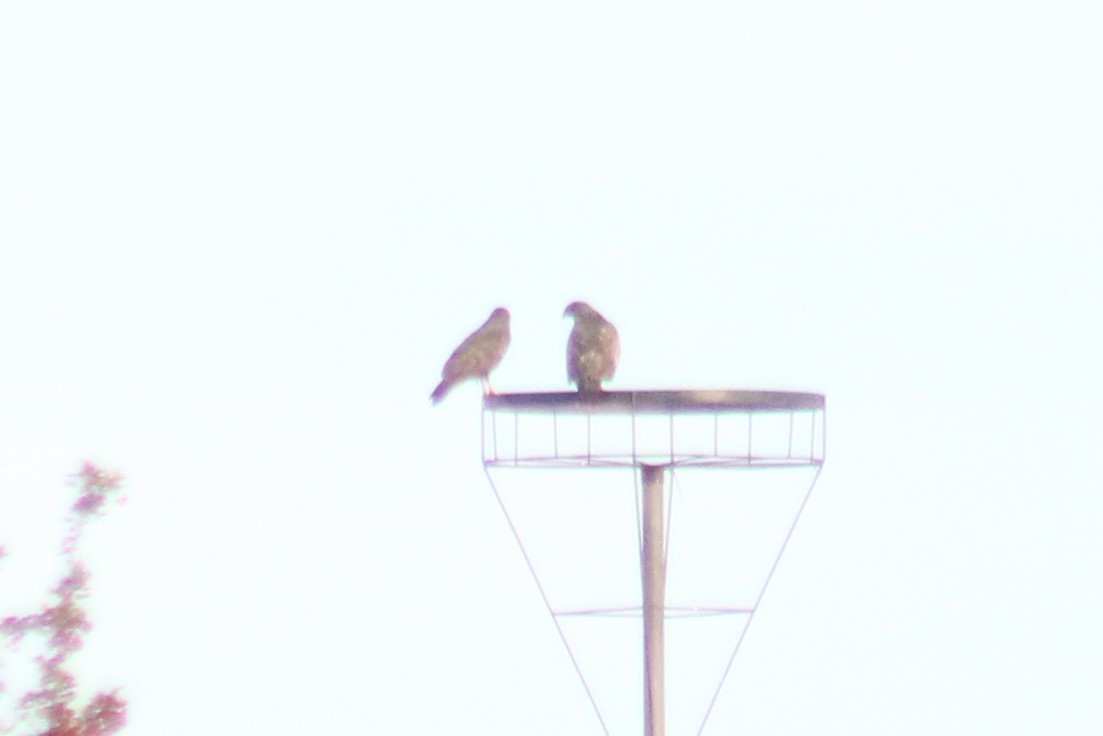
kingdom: Animalia
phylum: Chordata
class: Aves
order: Accipitriformes
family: Accipitridae
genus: Buteo
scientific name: Buteo buteo
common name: Common buzzard
